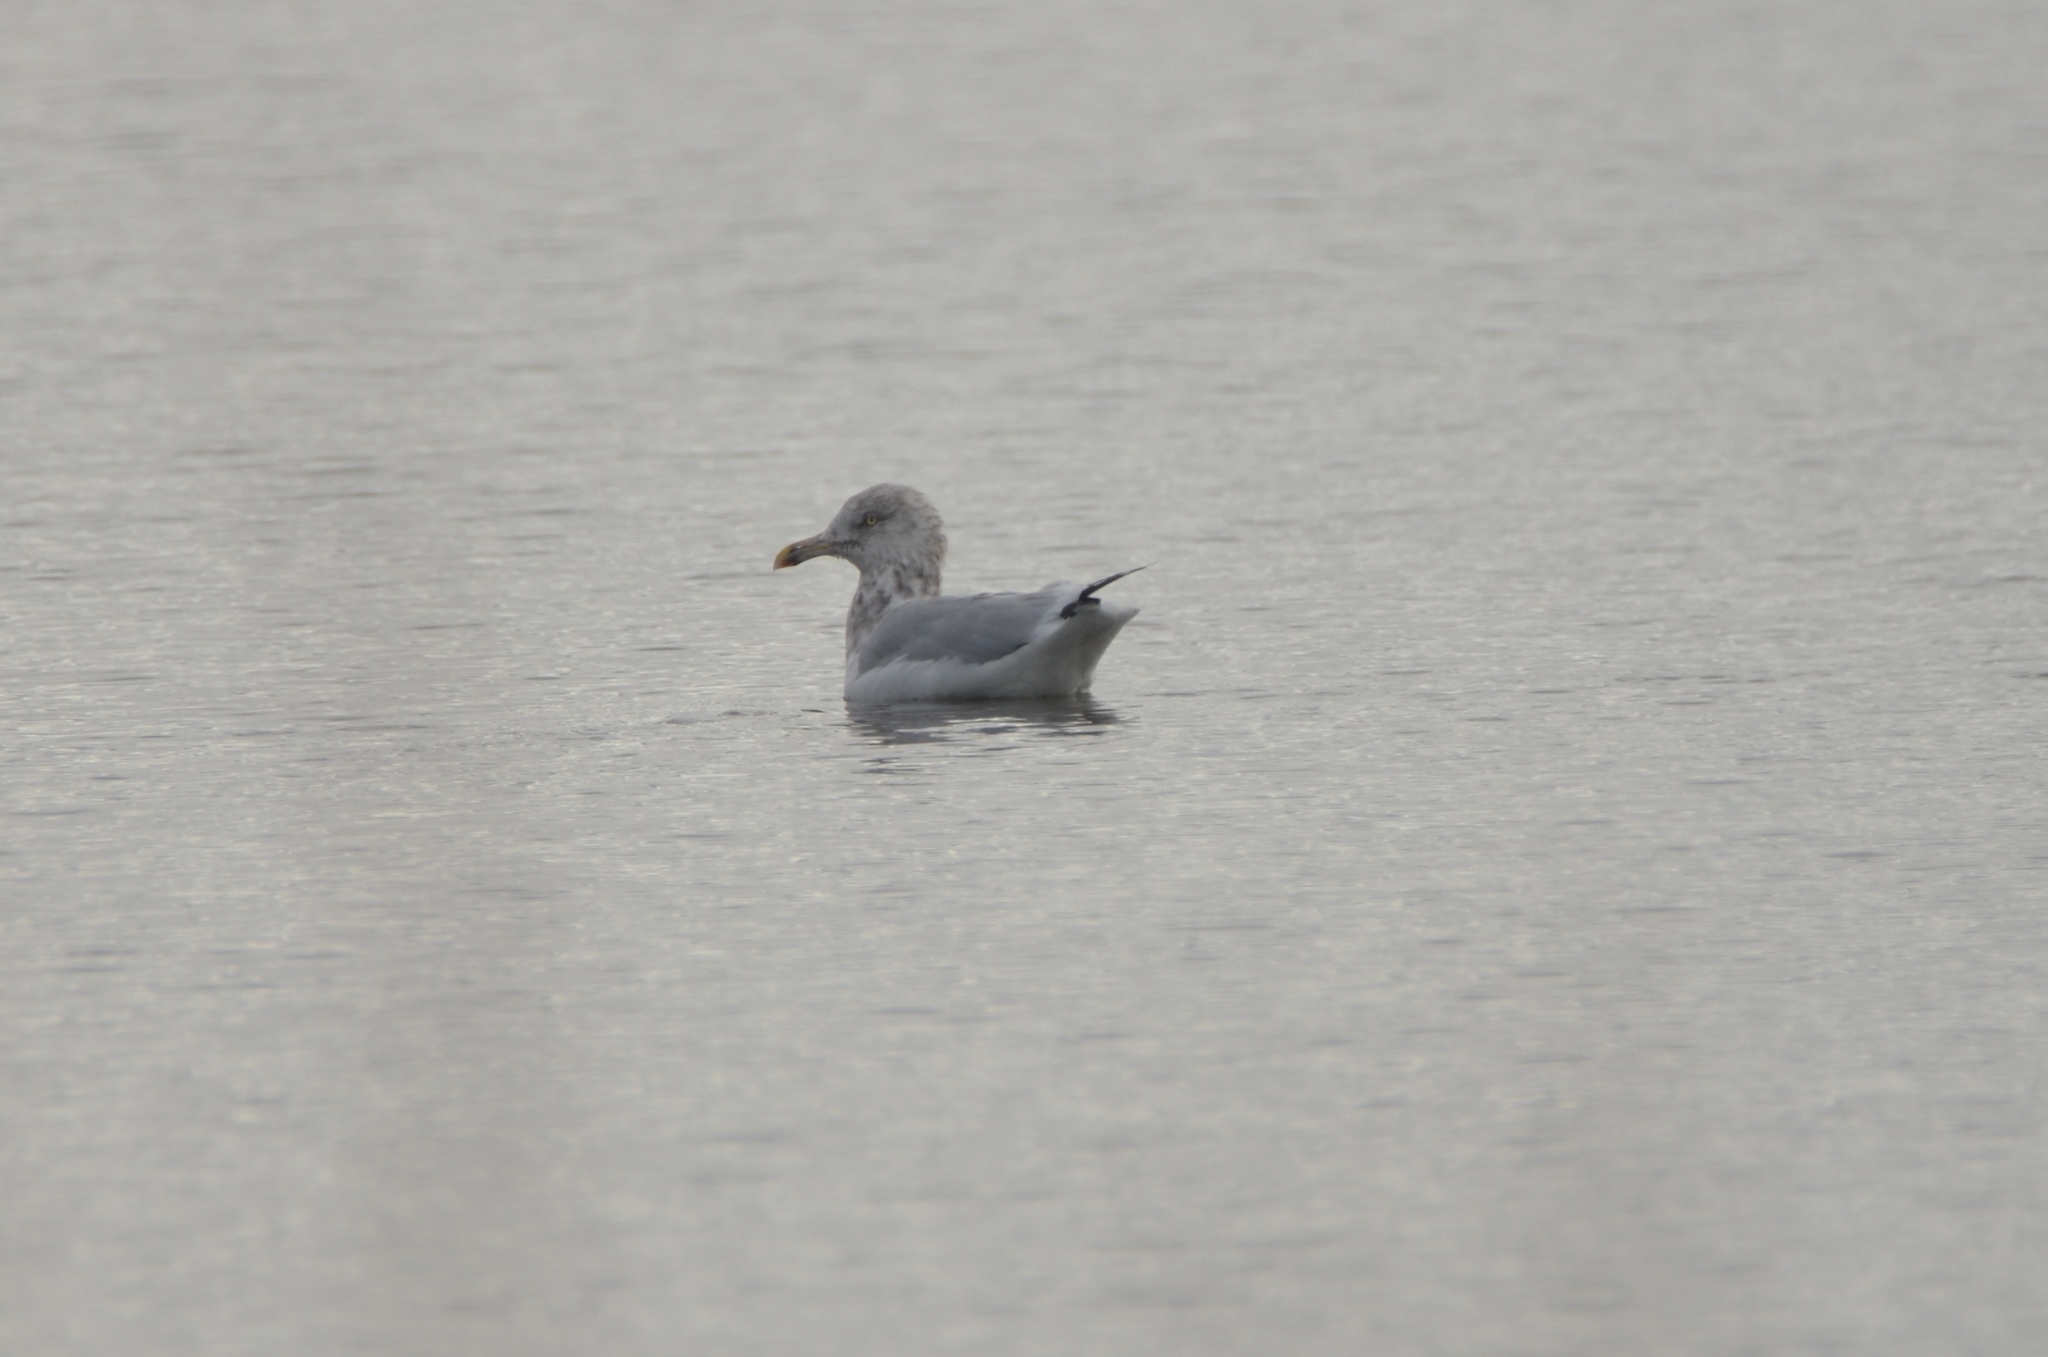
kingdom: Animalia
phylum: Chordata
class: Aves
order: Charadriiformes
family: Laridae
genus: Larus
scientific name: Larus argentatus
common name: Herring gull
